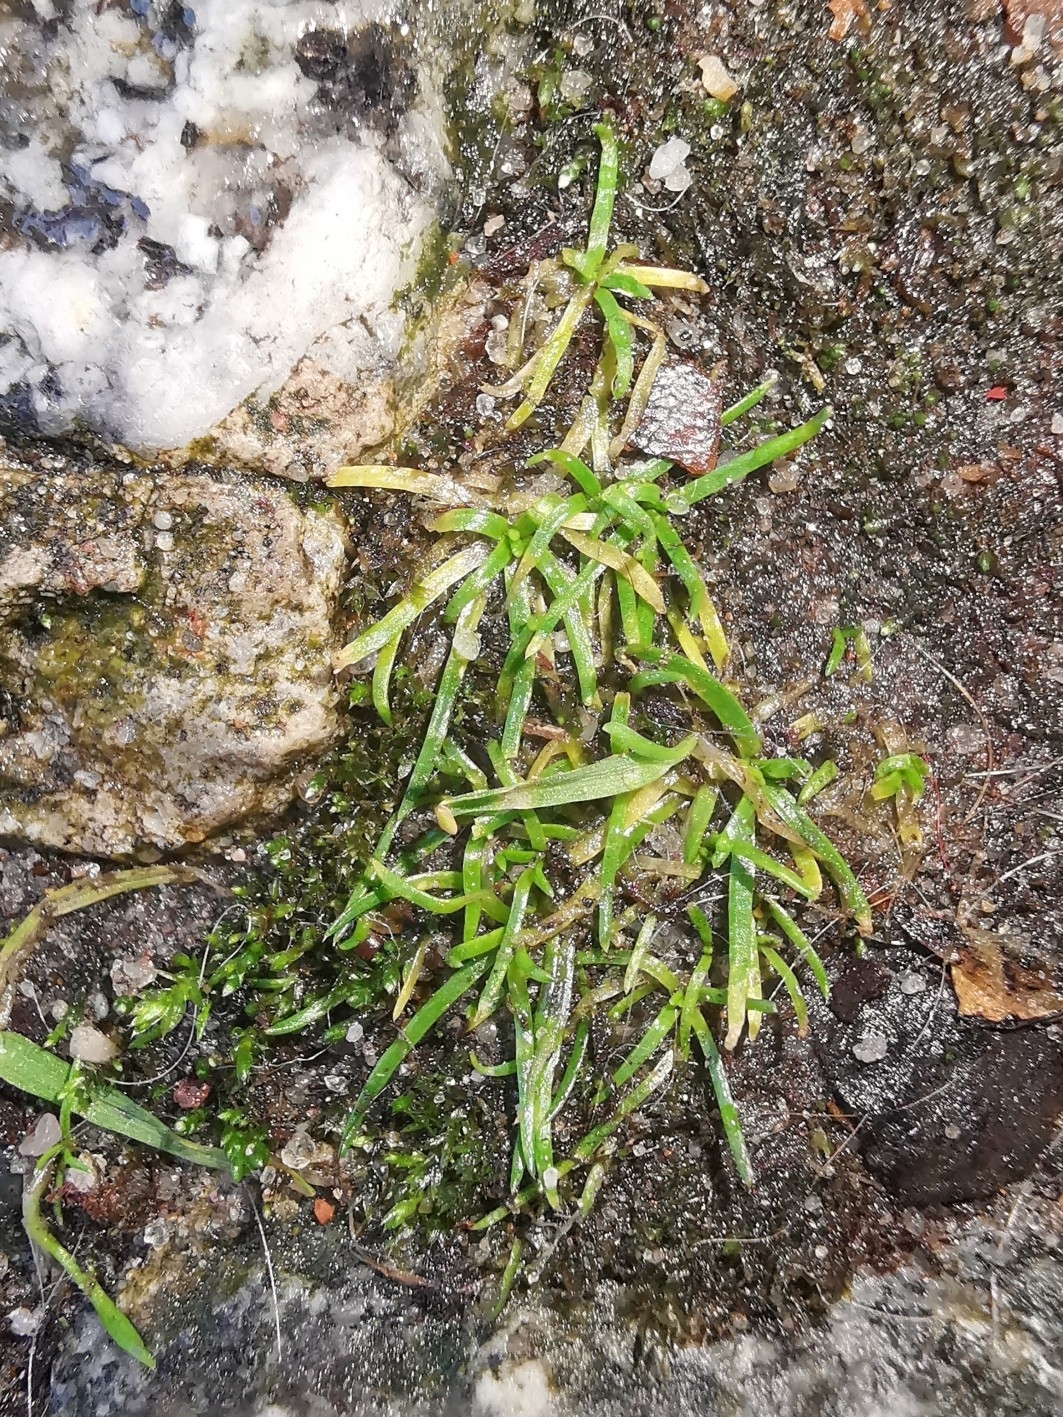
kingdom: Plantae
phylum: Tracheophyta
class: Magnoliopsida
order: Caryophyllales
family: Caryophyllaceae
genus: Sagina
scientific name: Sagina procumbens
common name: Procumbent pearlwort
